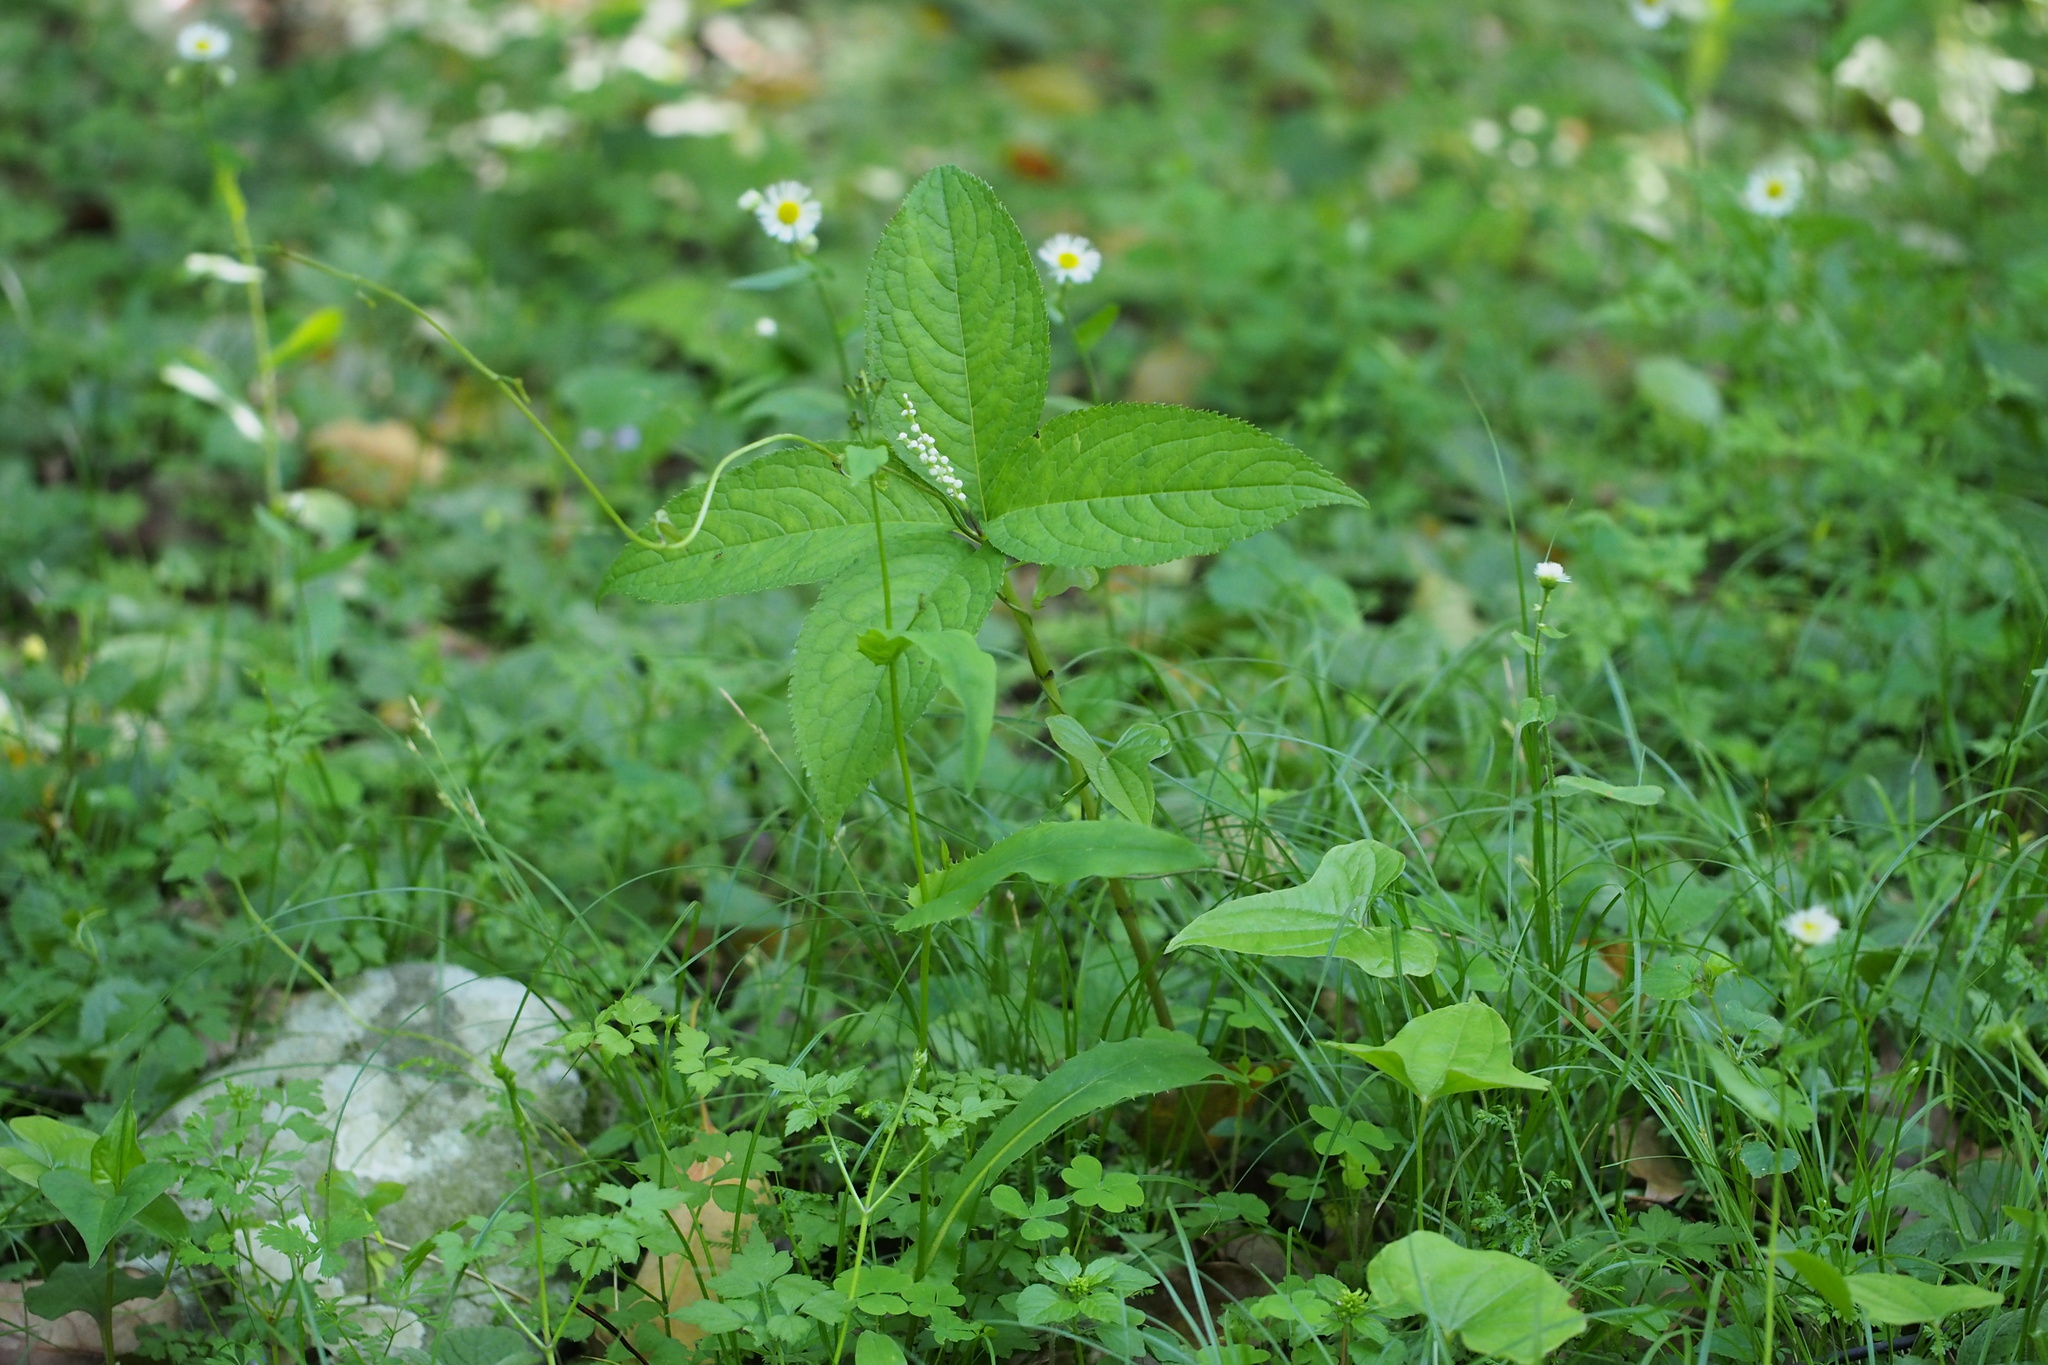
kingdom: Plantae
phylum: Tracheophyta
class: Magnoliopsida
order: Chloranthales
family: Chloranthaceae
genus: Chloranthus
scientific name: Chloranthus serratus
